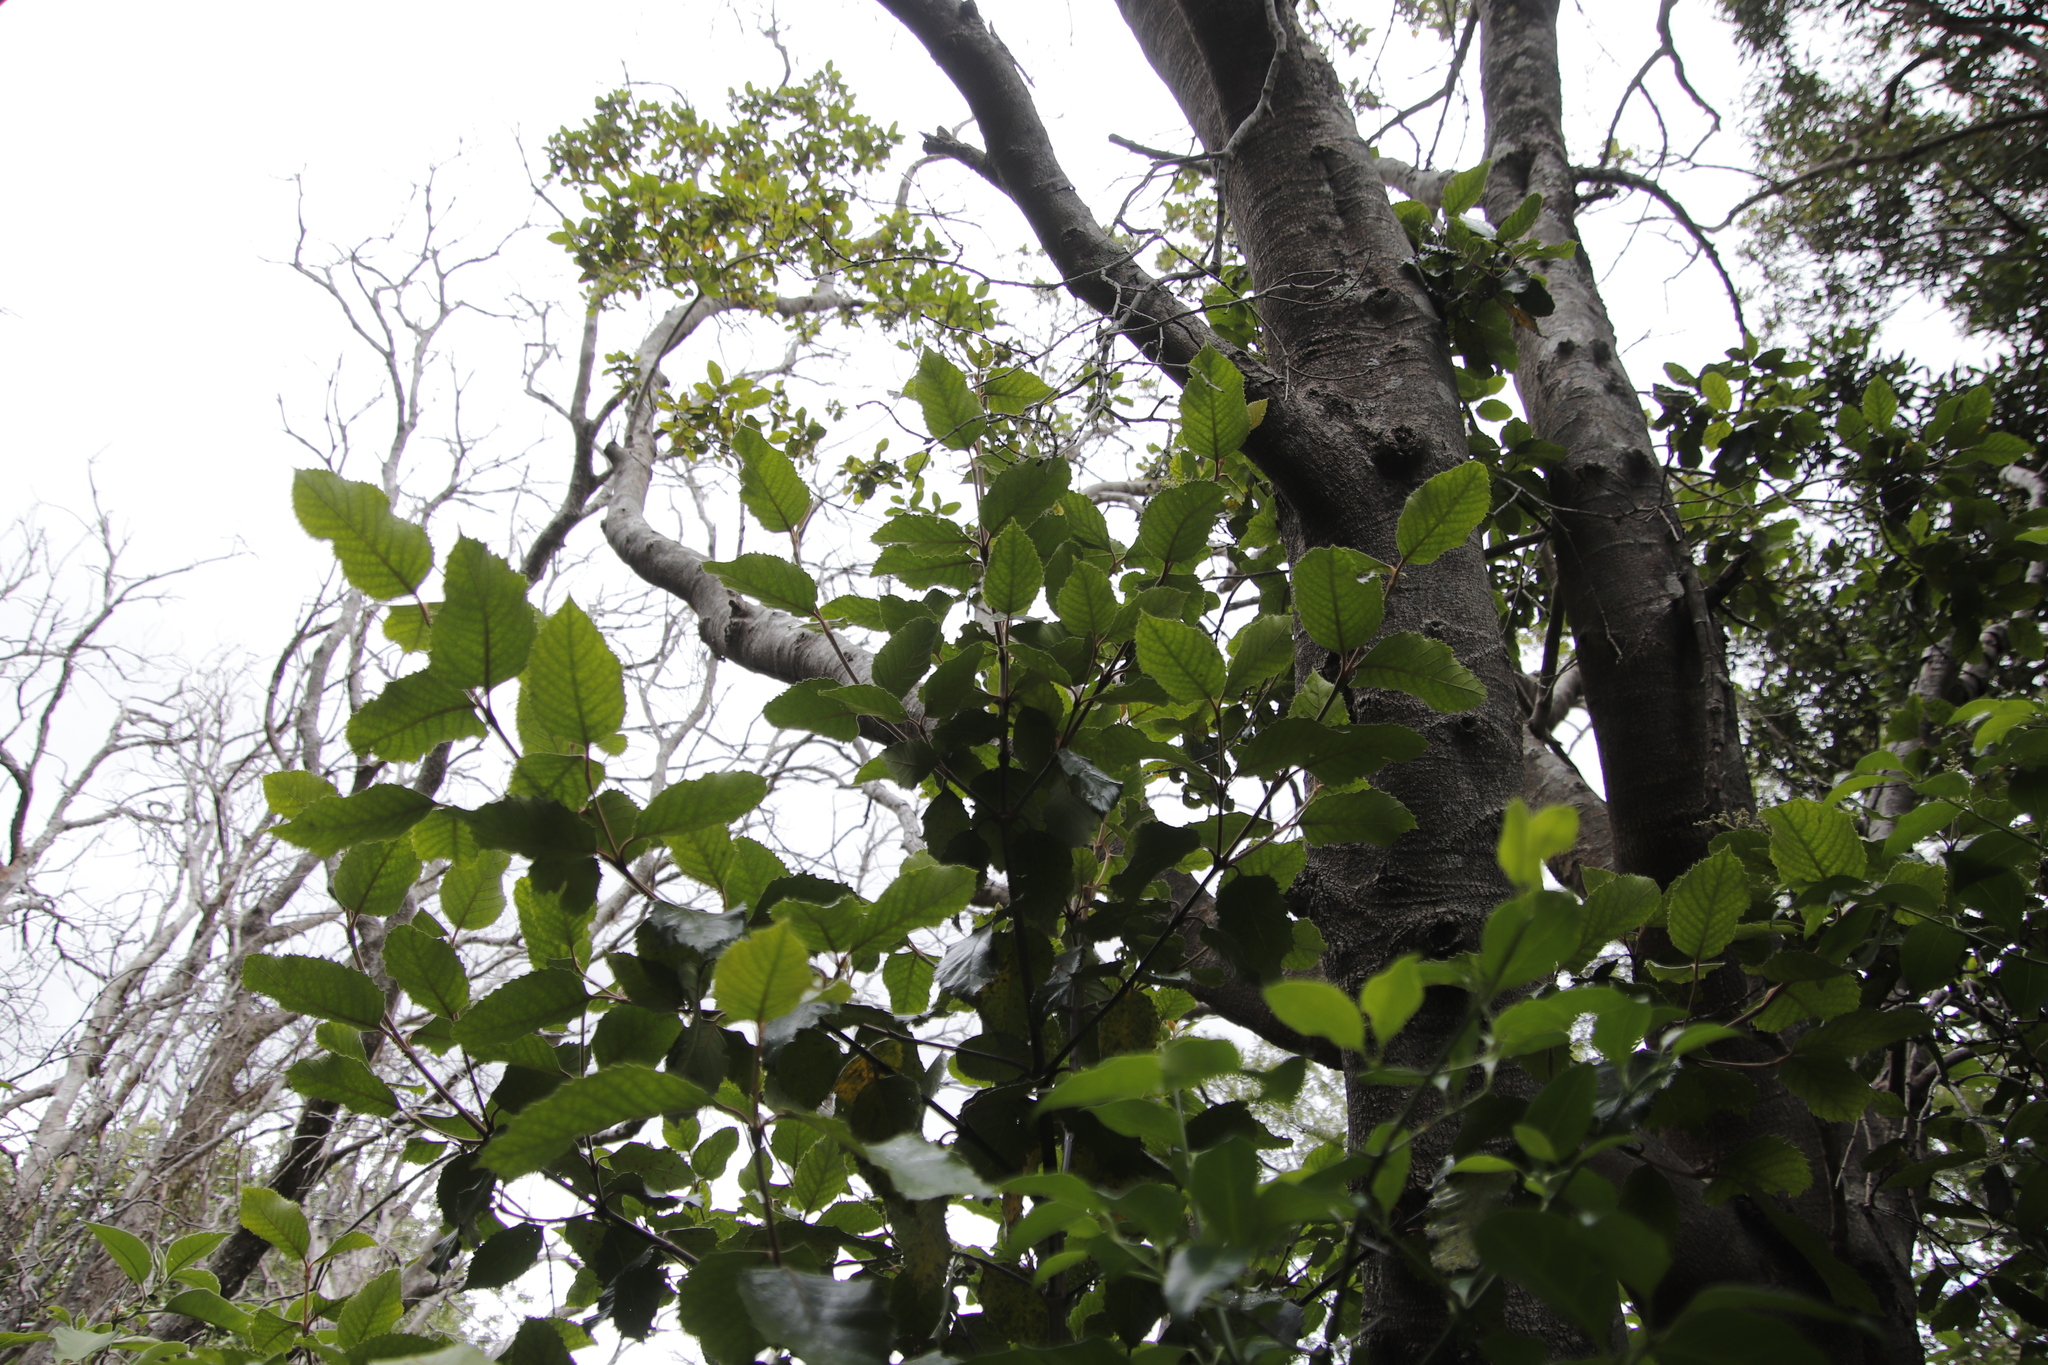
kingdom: Plantae
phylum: Tracheophyta
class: Magnoliopsida
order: Cornales
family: Curtisiaceae
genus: Curtisia
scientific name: Curtisia dentata
